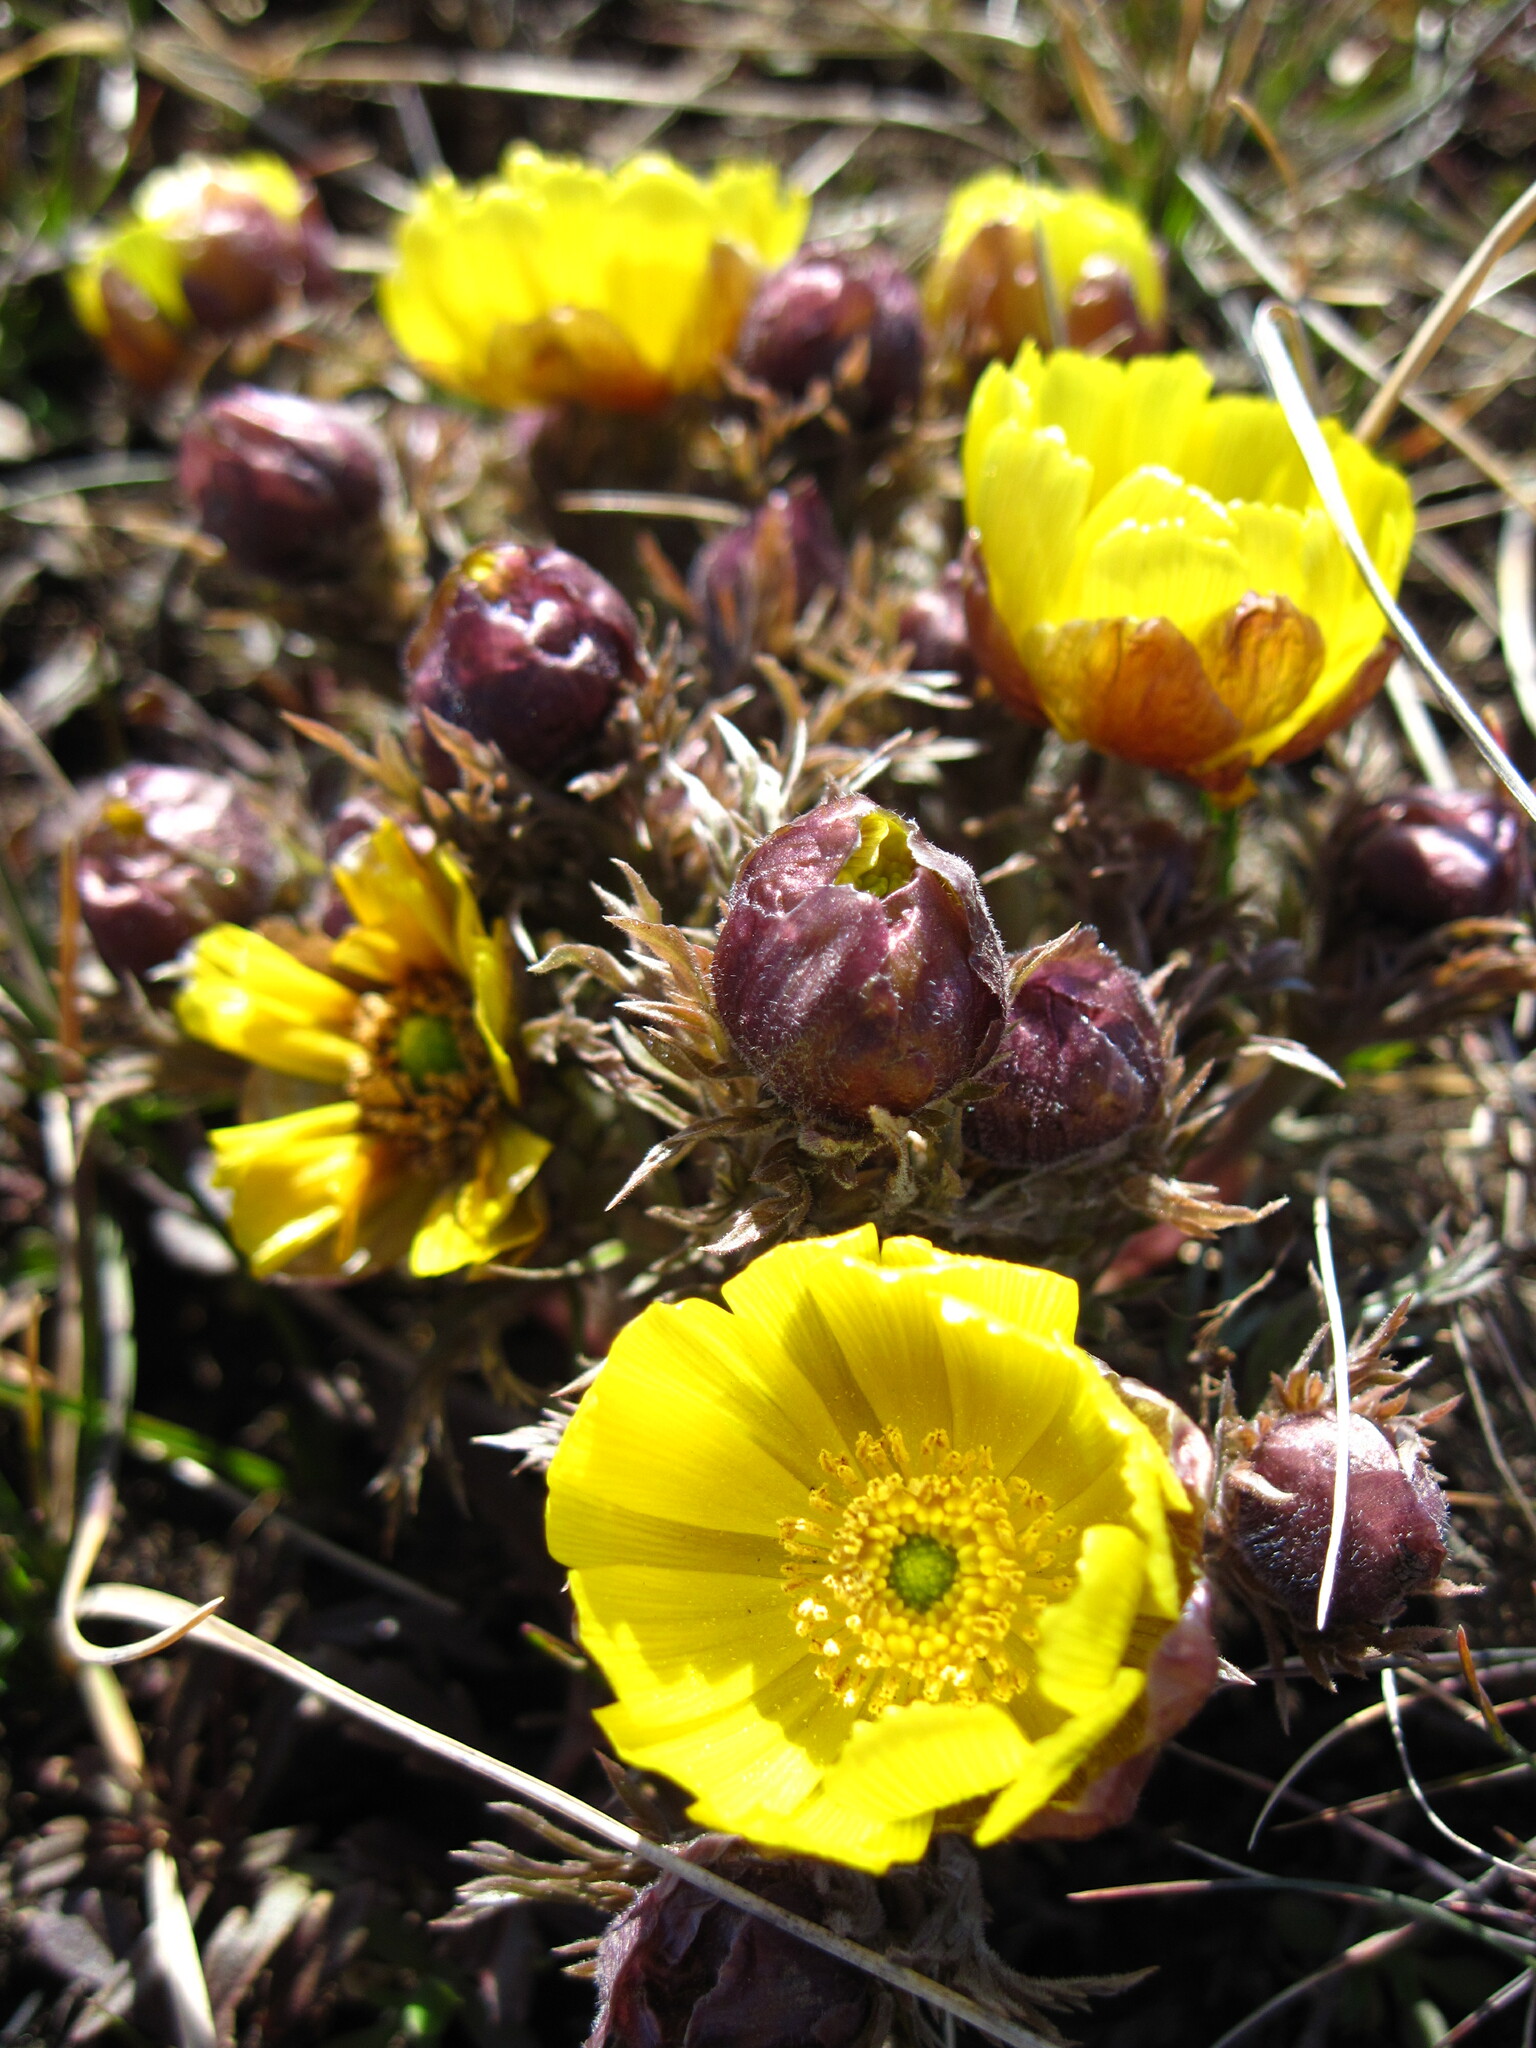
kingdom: Plantae
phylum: Tracheophyta
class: Magnoliopsida
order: Ranunculales
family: Ranunculaceae
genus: Adonis
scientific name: Adonis volgensis
